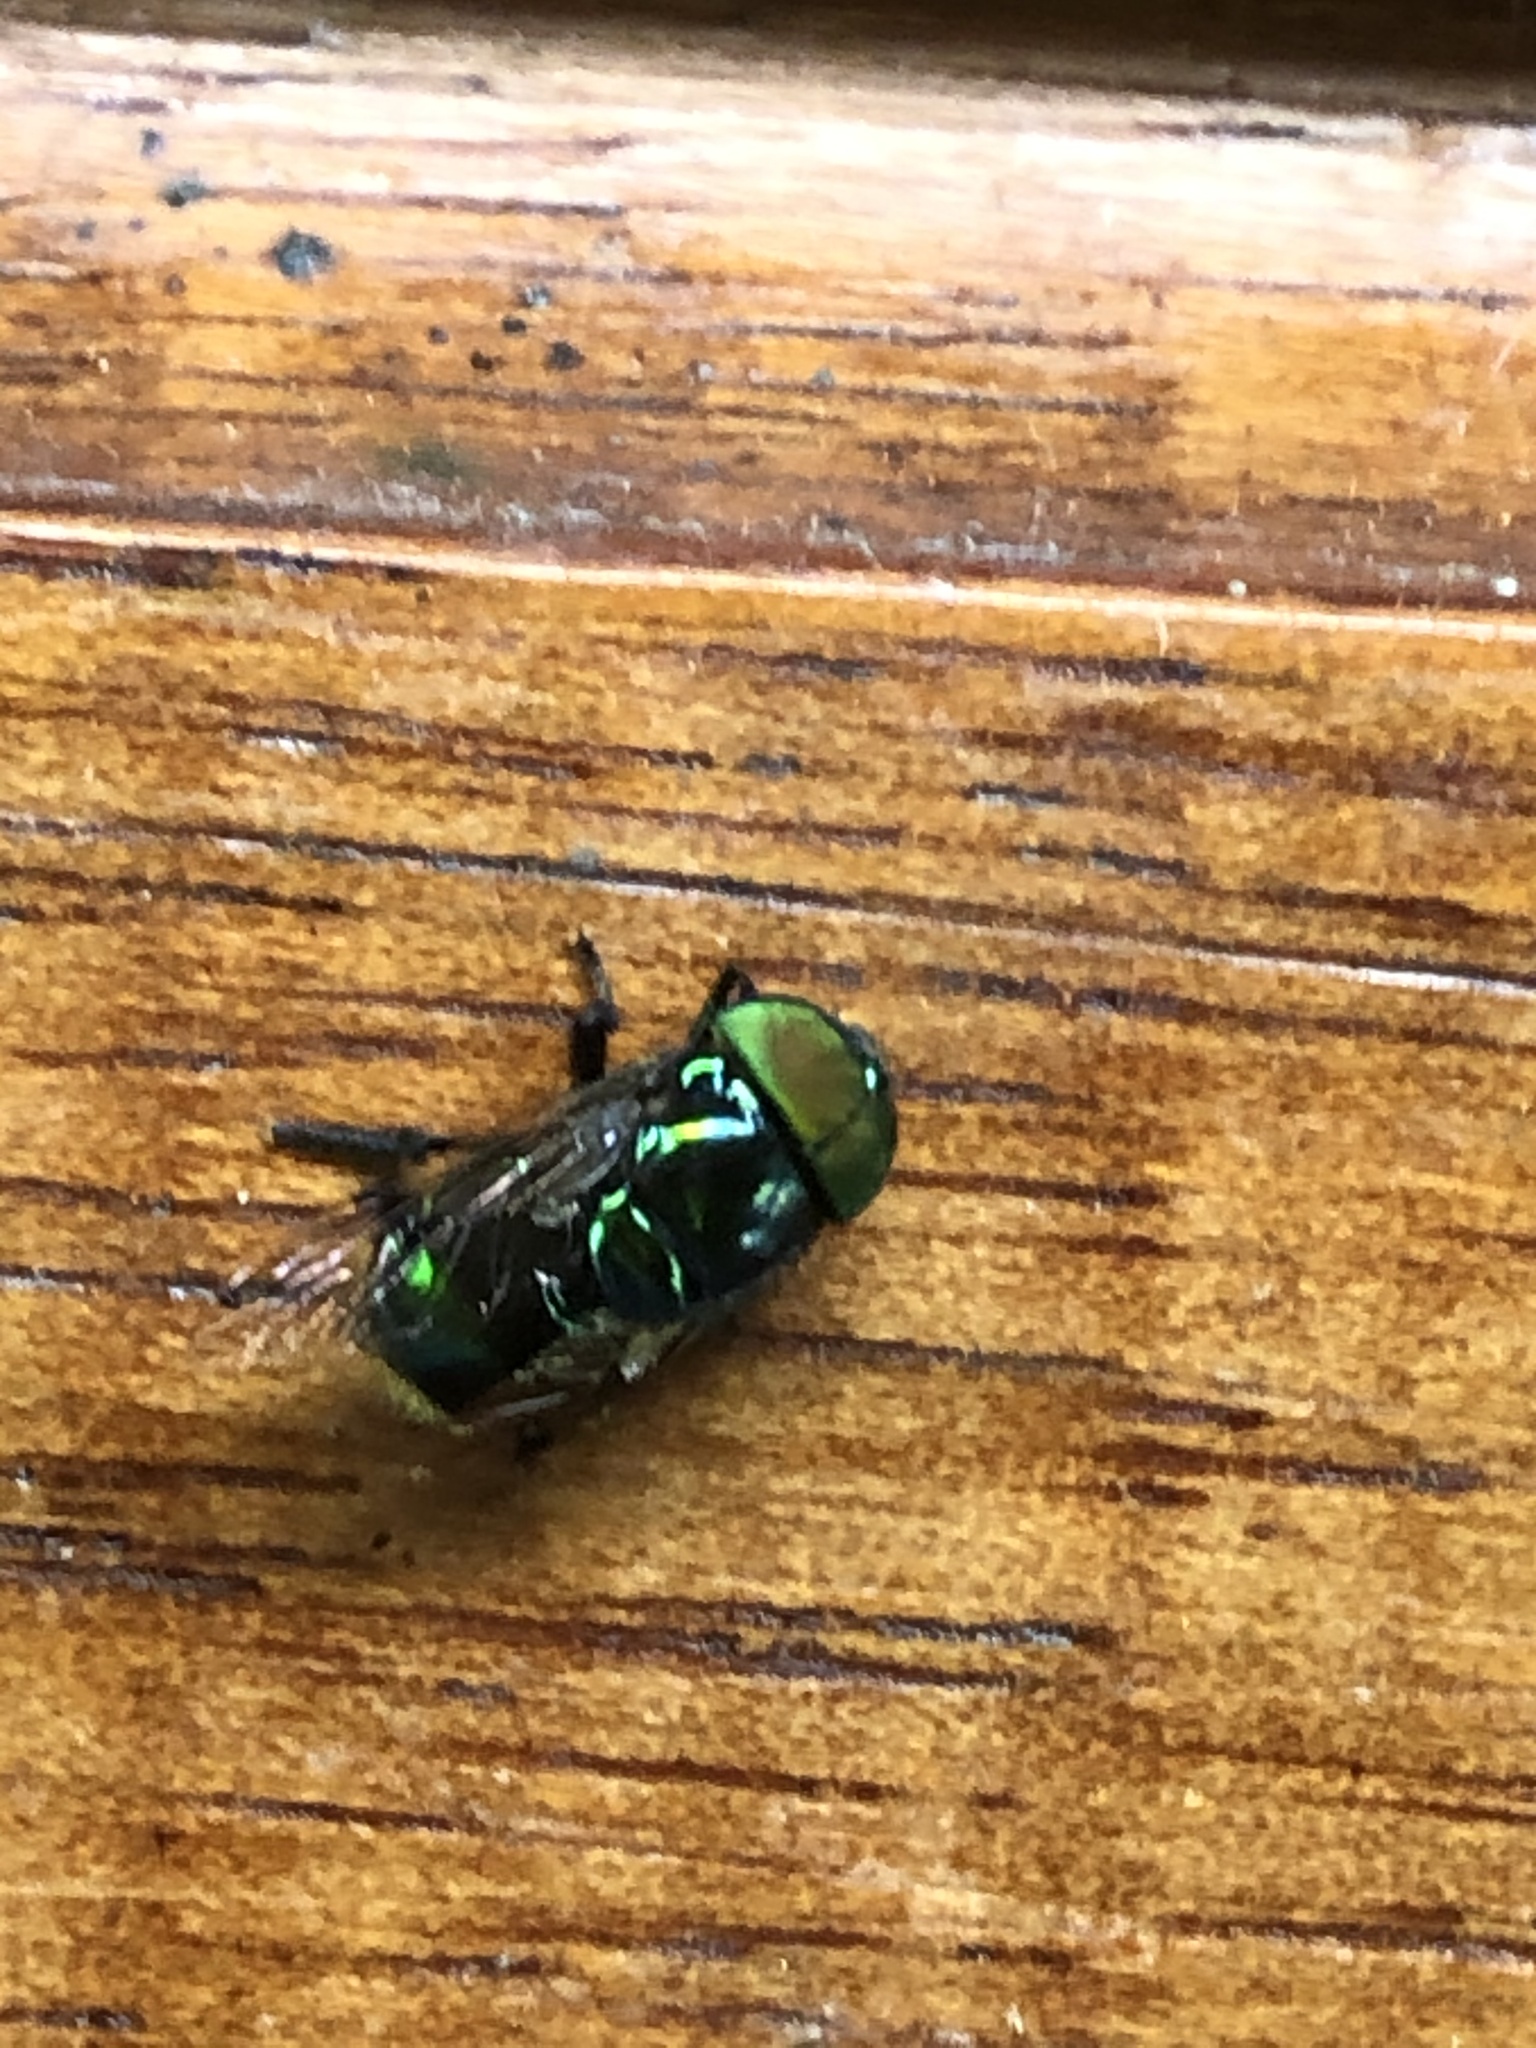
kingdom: Animalia
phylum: Arthropoda
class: Insecta
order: Diptera
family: Syrphidae
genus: Ornidia
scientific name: Ornidia obesa
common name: Syrphid fly
